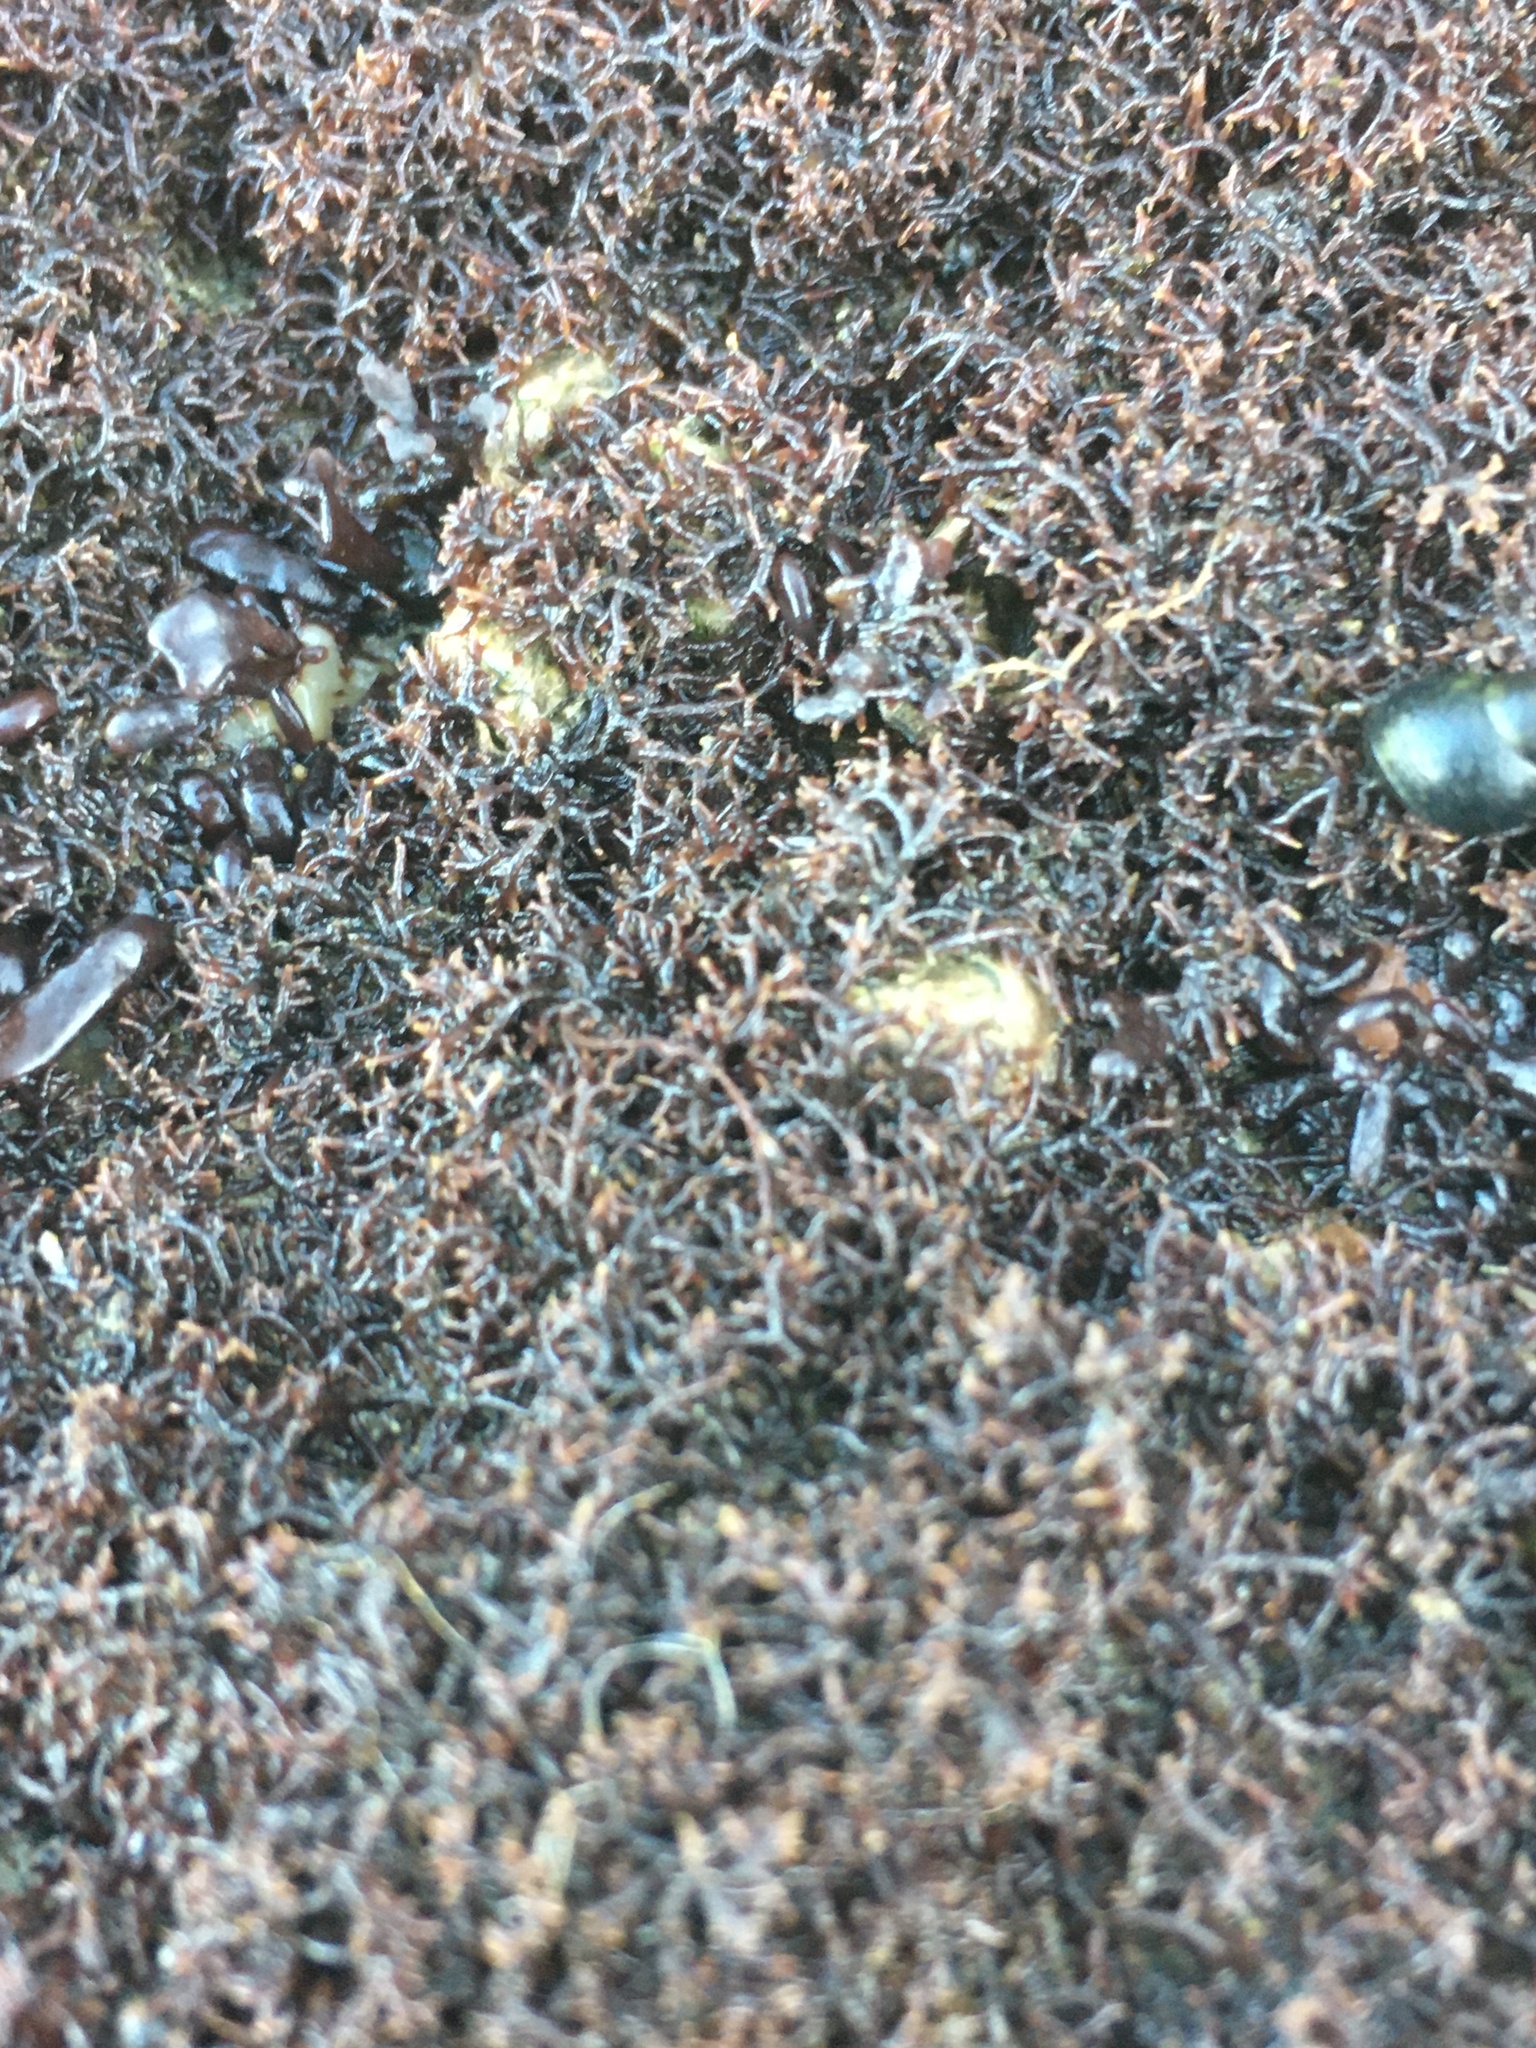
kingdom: Plantae
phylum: Rhodophyta
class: Florideophyceae
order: Gigartinales
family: Endocladiaceae
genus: Endocladia
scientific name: Endocladia muricata
